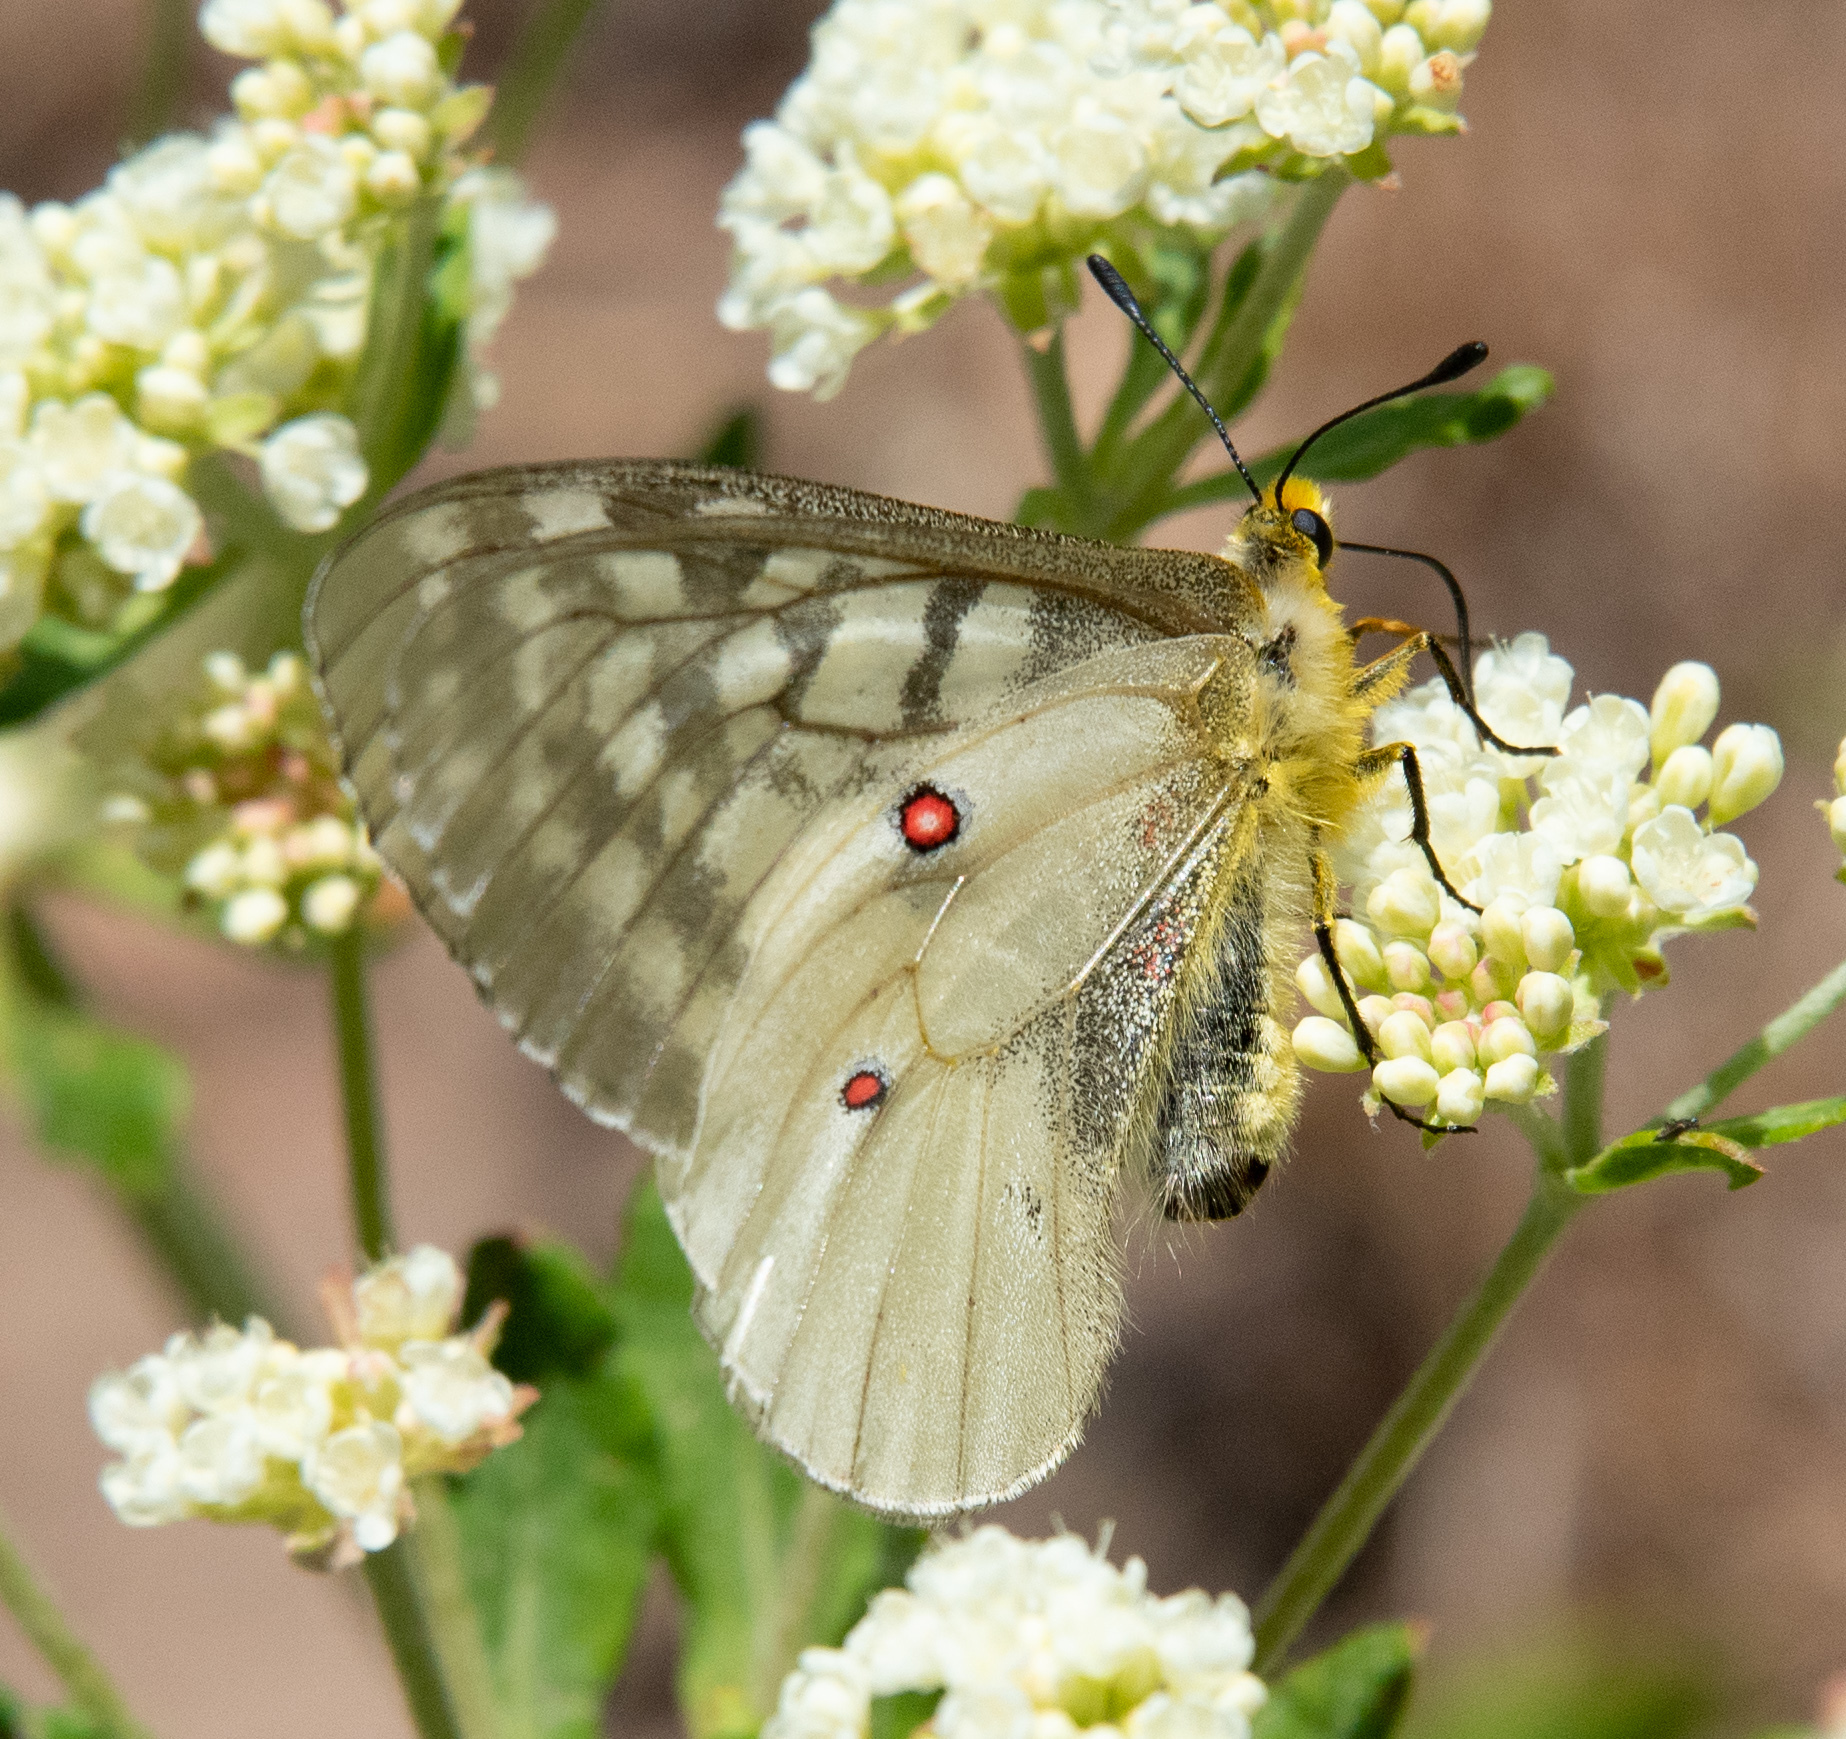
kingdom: Animalia
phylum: Arthropoda
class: Insecta
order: Lepidoptera
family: Papilionidae
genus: Parnassius
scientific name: Parnassius clodius
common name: American apollo
